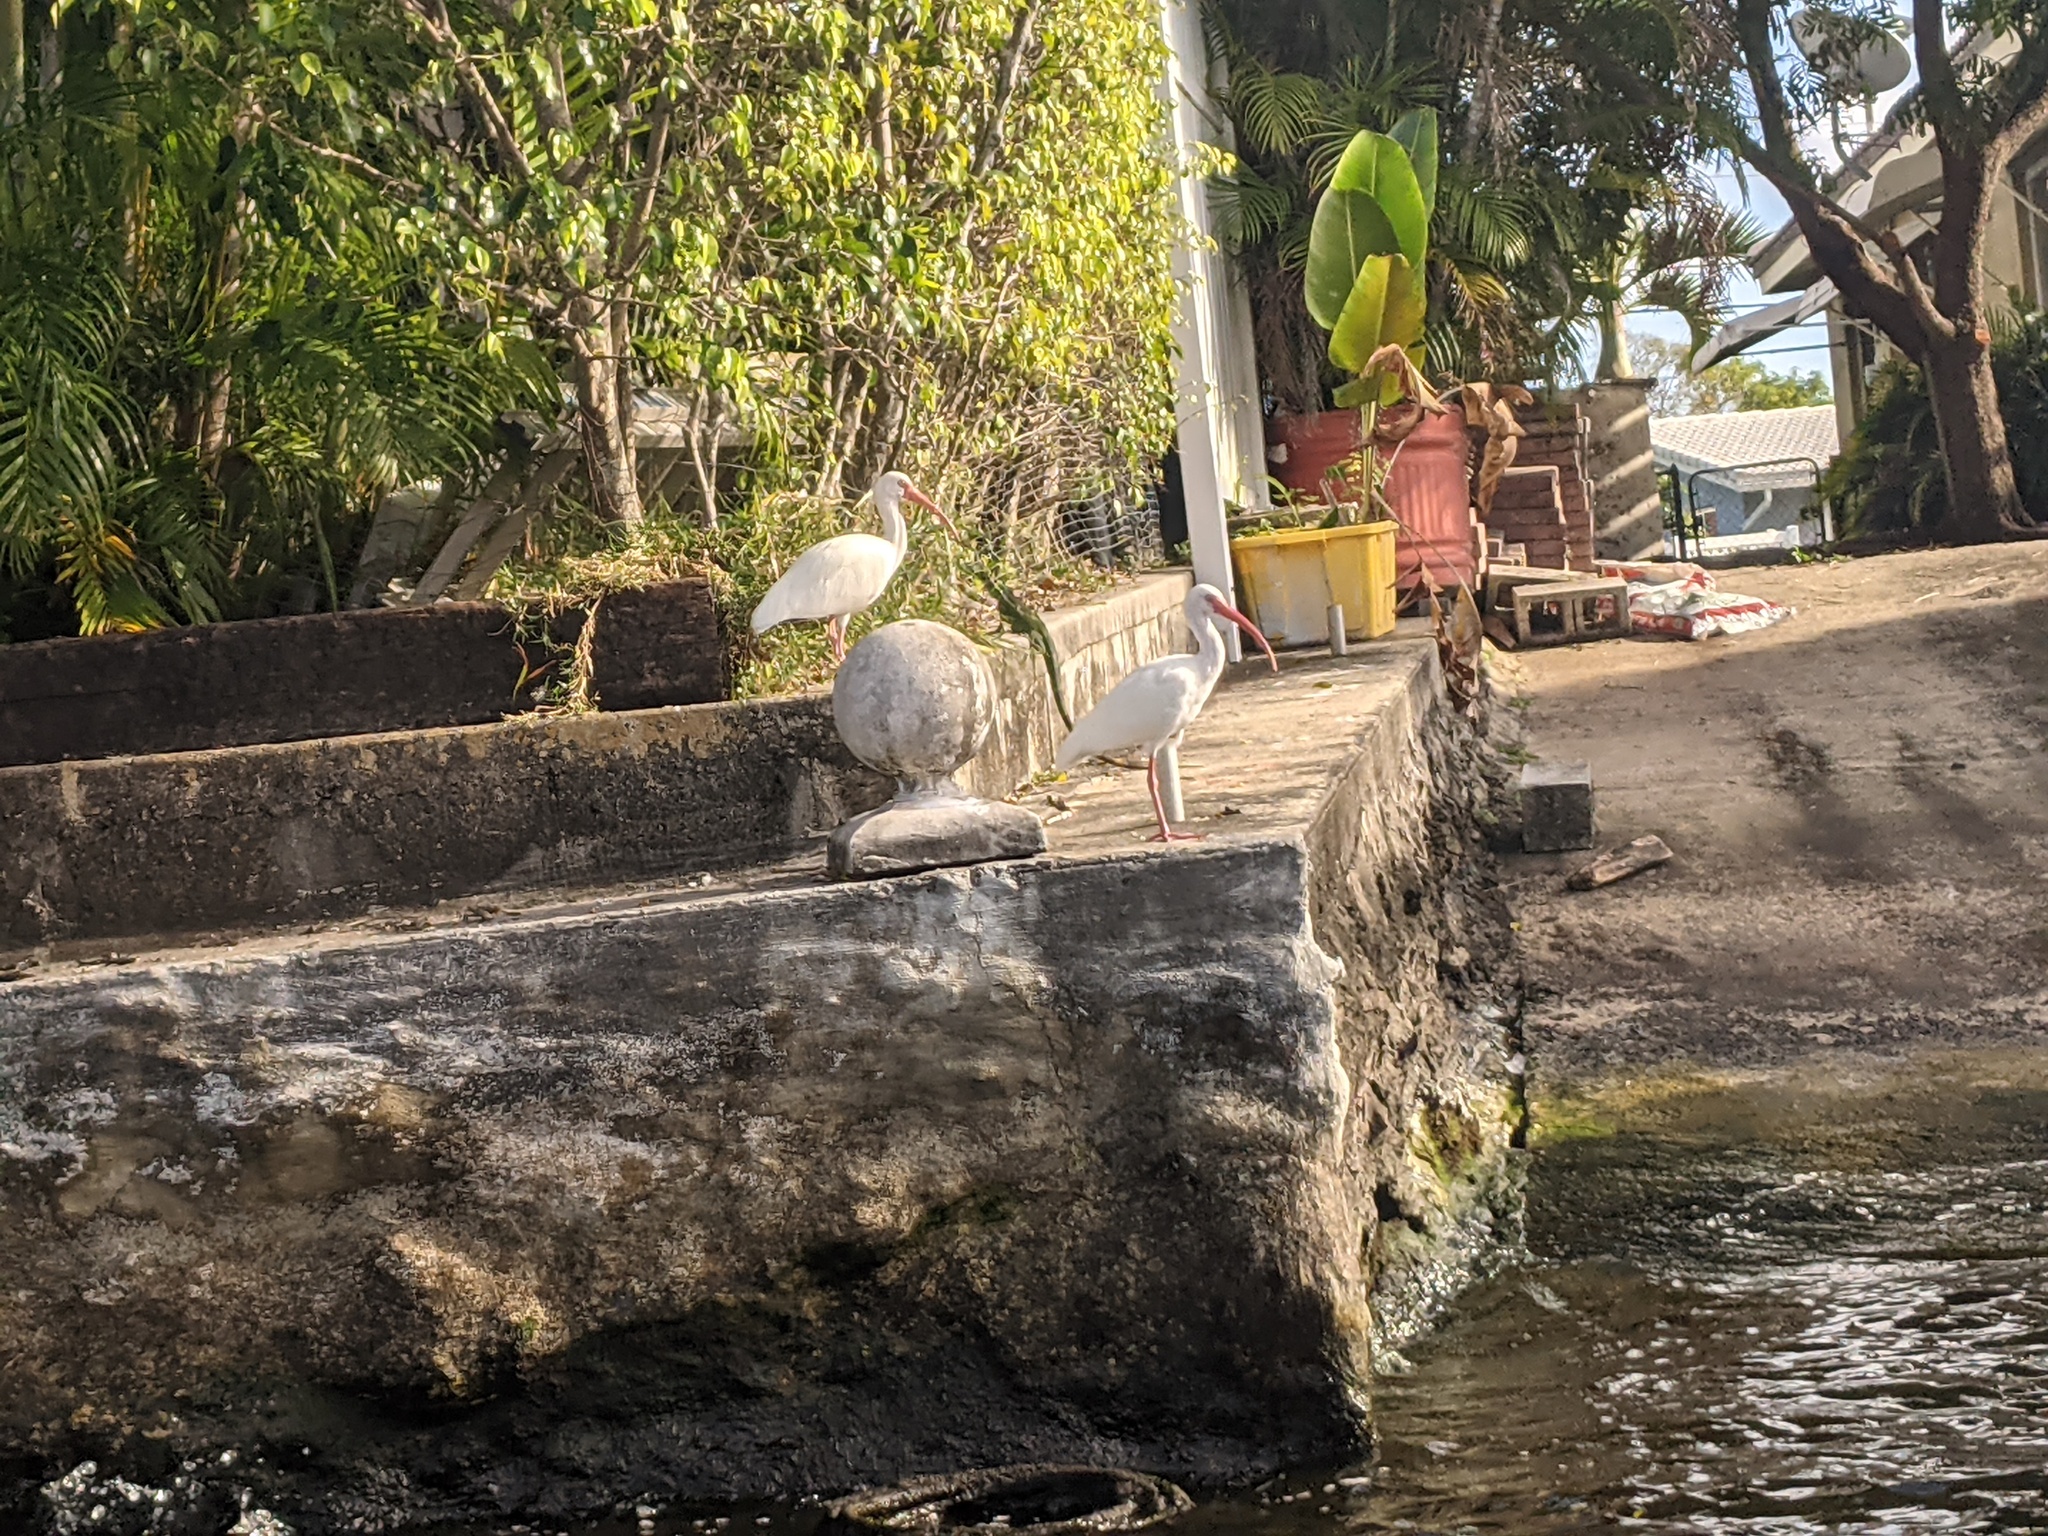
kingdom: Animalia
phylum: Chordata
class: Aves
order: Pelecaniformes
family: Threskiornithidae
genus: Eudocimus
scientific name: Eudocimus albus
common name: White ibis
